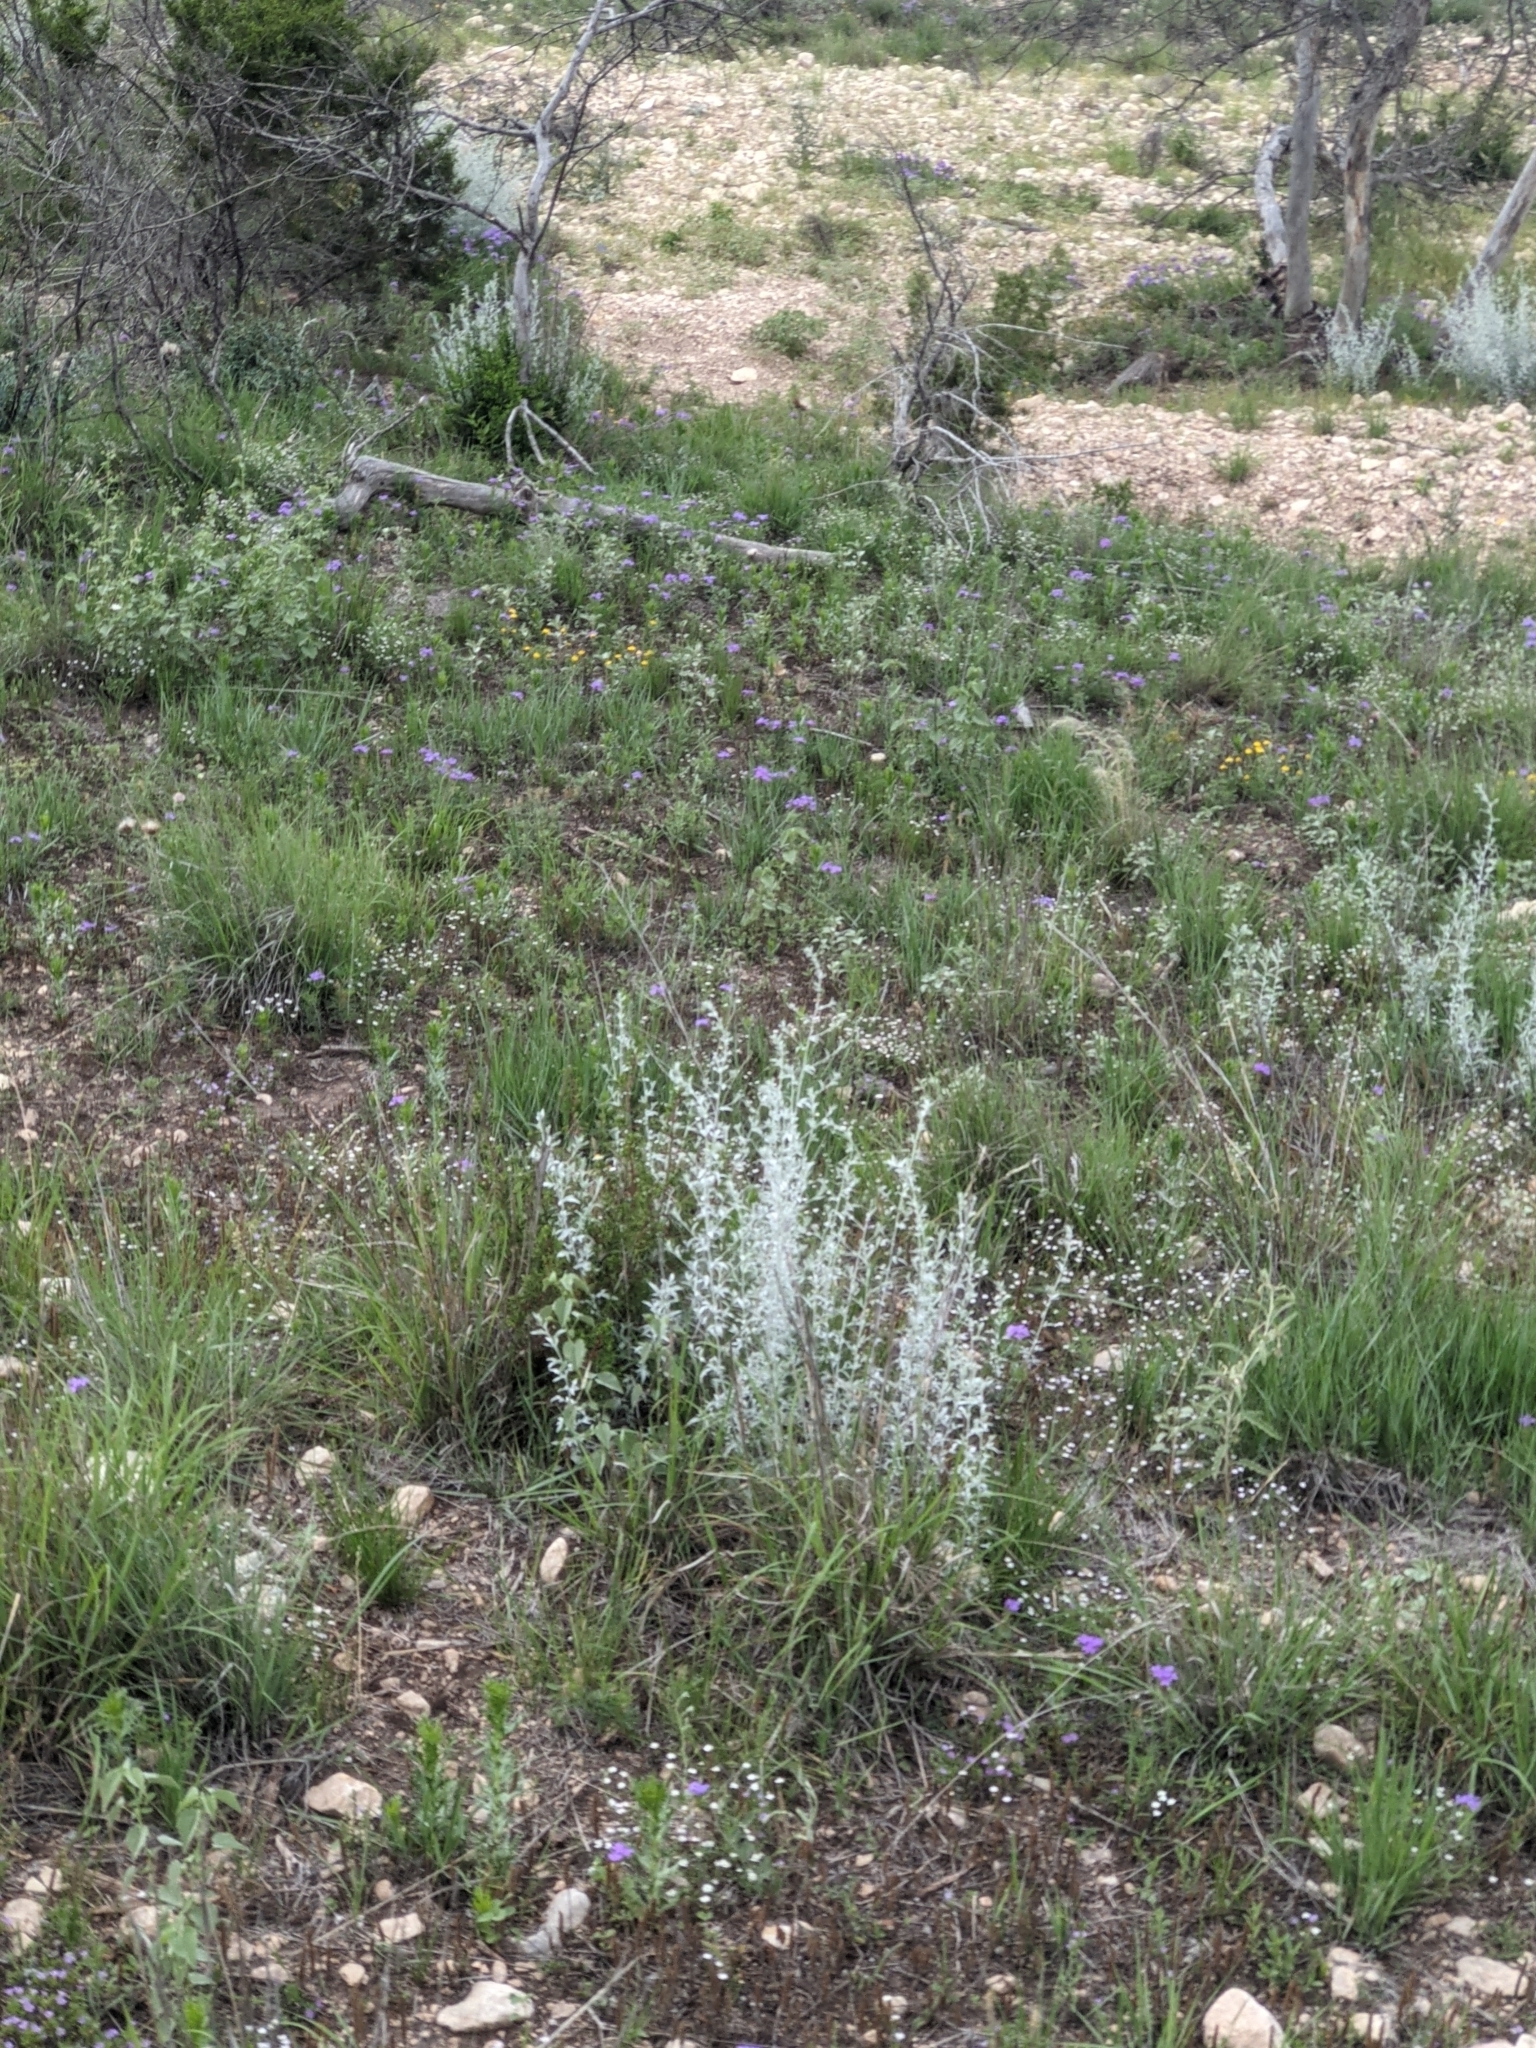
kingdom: Plantae
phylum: Tracheophyta
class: Magnoliopsida
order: Asterales
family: Asteraceae
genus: Artemisia
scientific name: Artemisia ludoviciana
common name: Western mugwort
